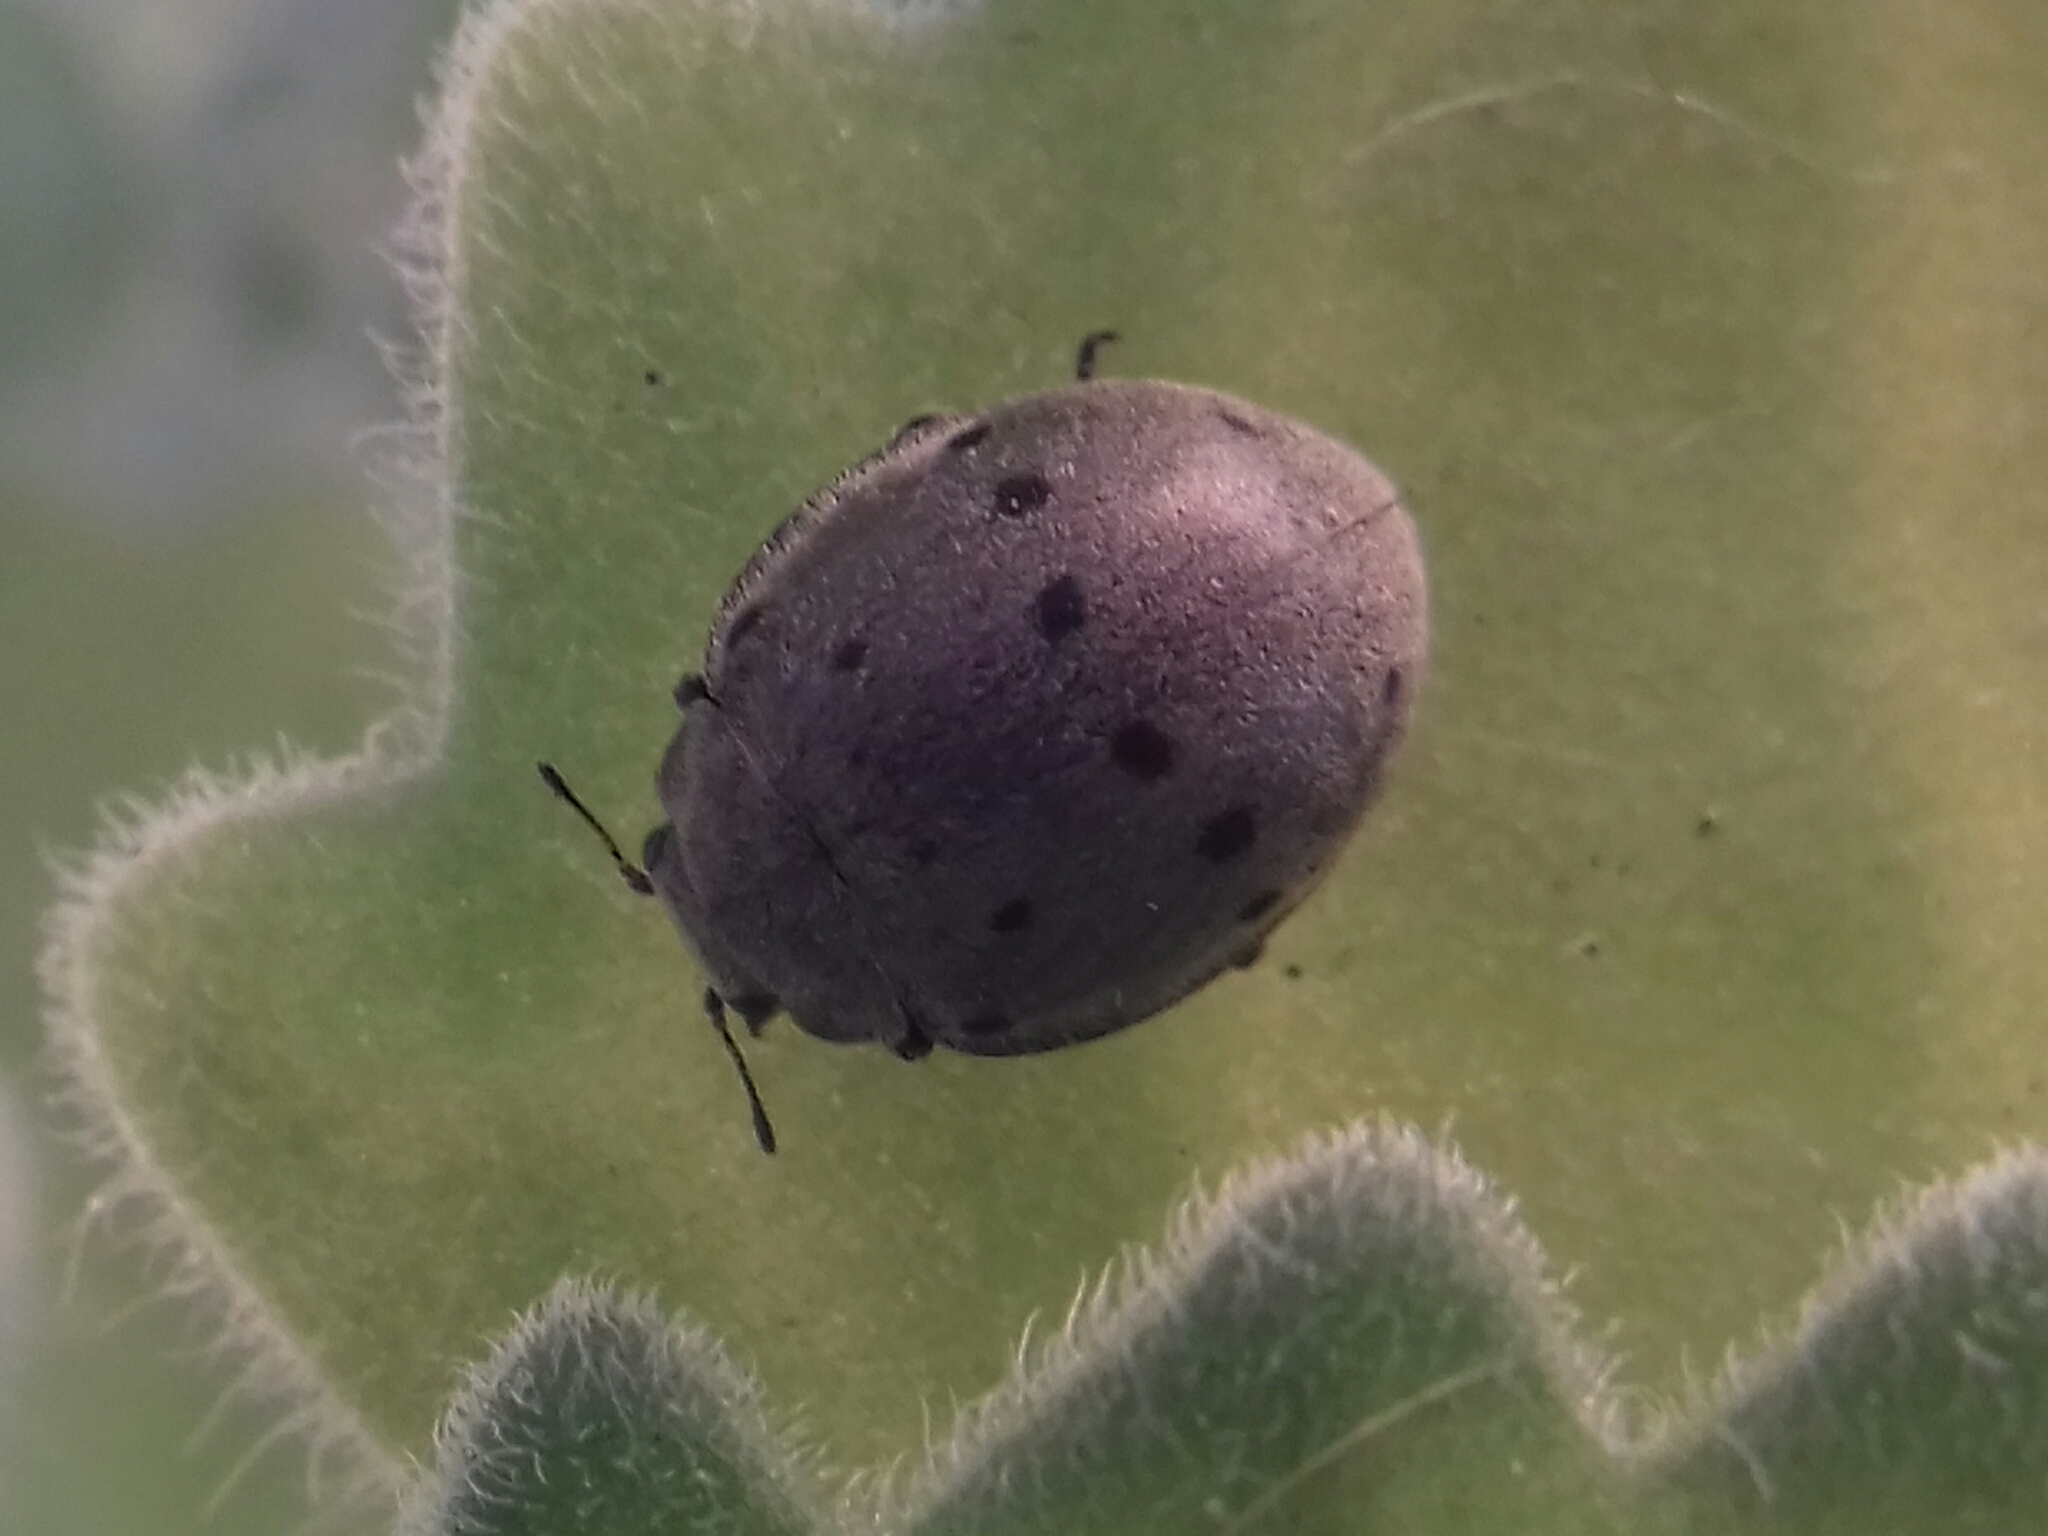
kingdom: Animalia
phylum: Arthropoda
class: Insecta
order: Coleoptera
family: Coccinellidae
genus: Epilachna
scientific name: Epilachna
